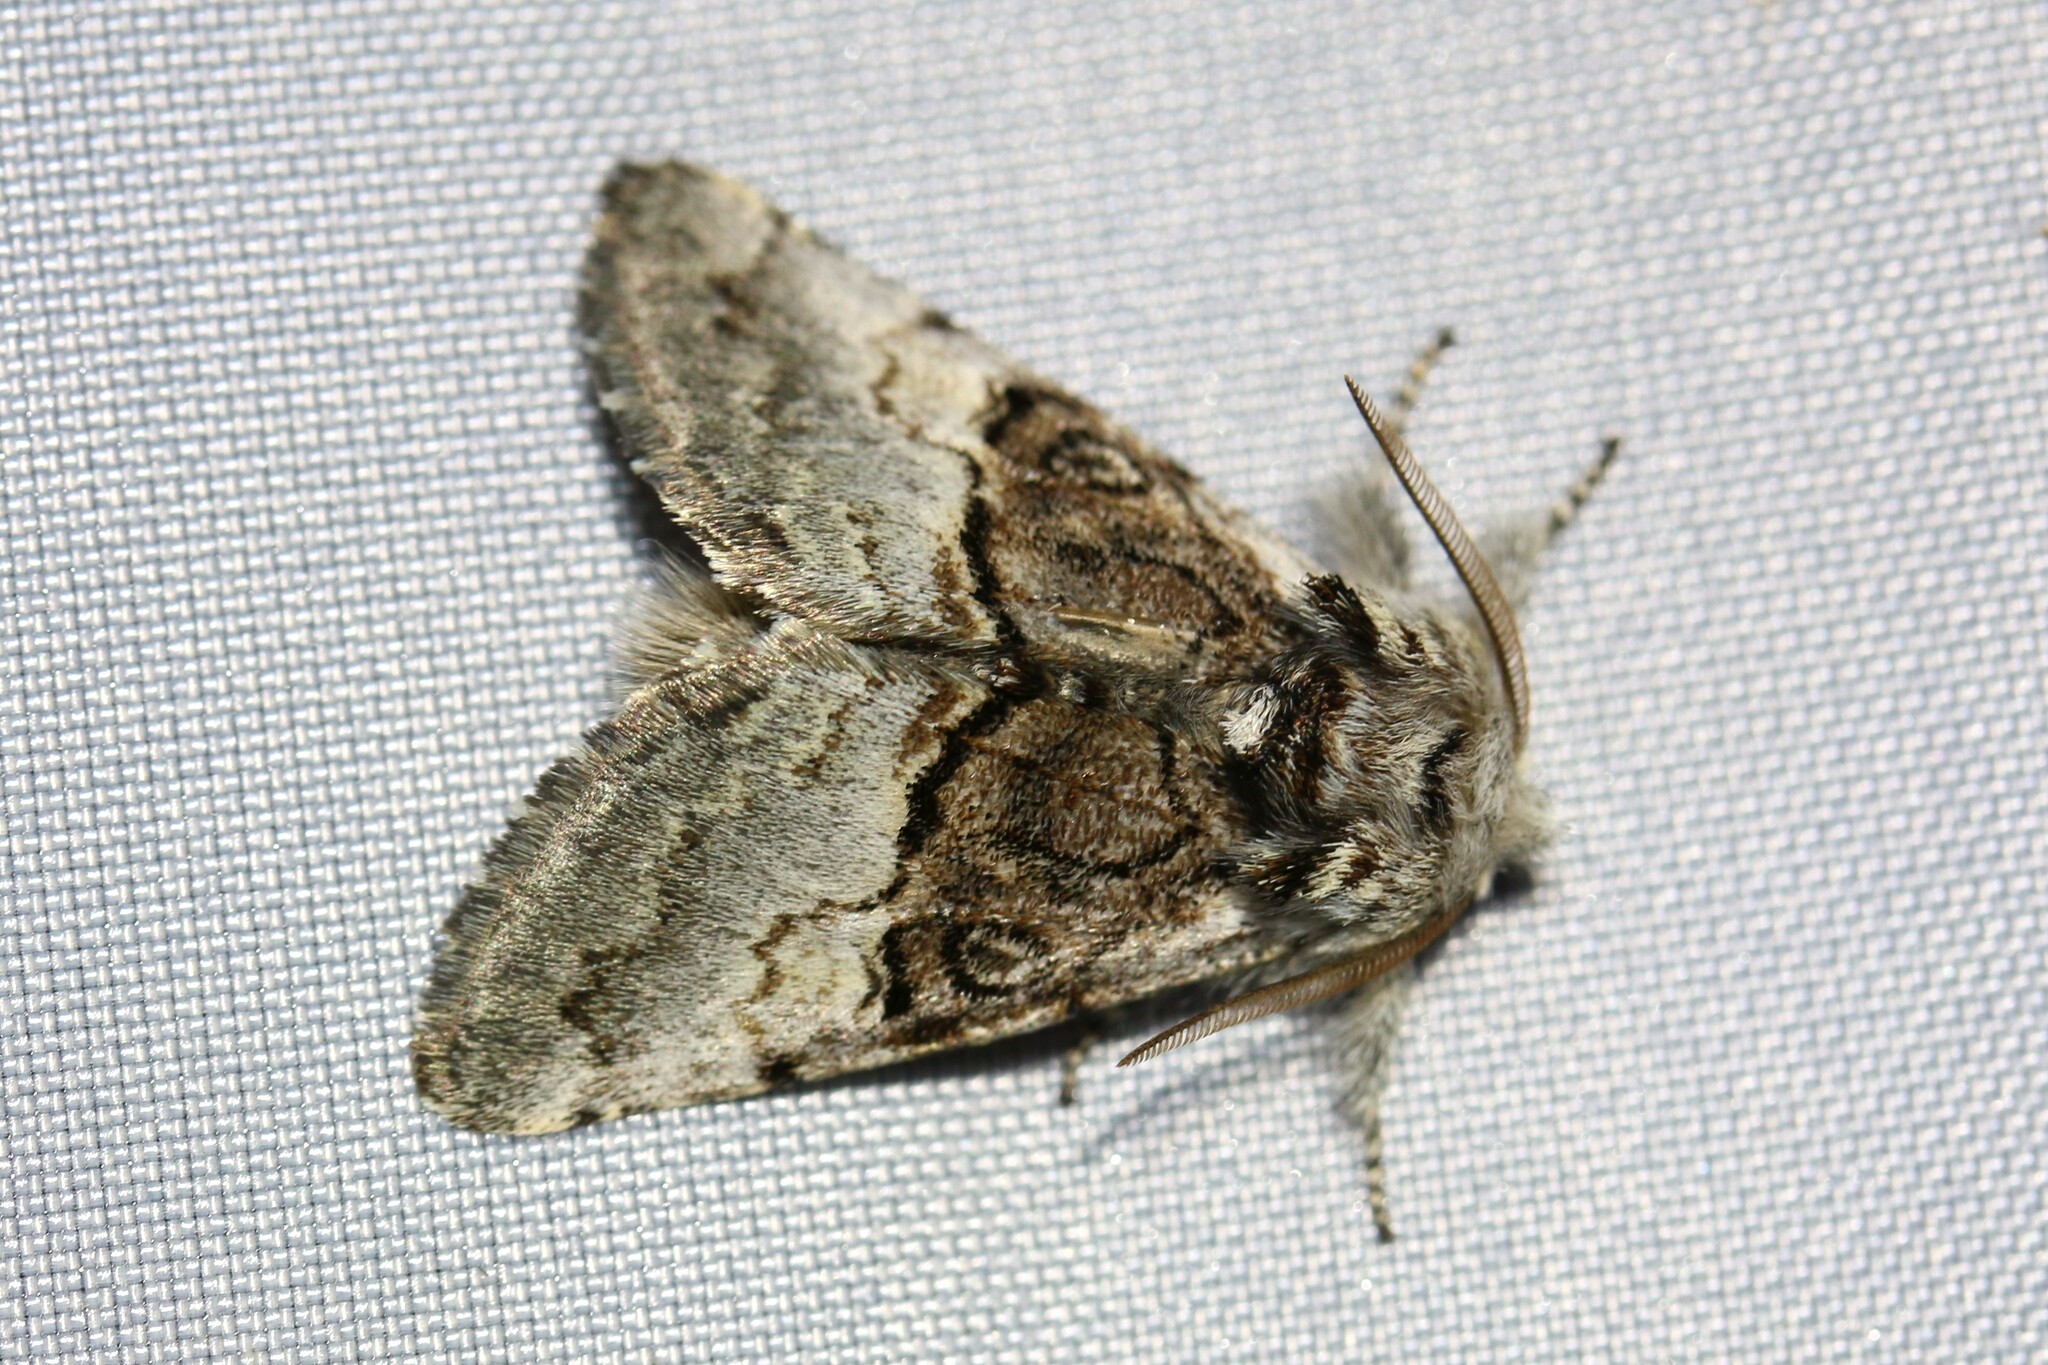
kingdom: Animalia
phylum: Arthropoda
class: Insecta
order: Lepidoptera
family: Noctuidae
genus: Colocasia
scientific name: Colocasia coryli
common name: Nut-tree tussock
